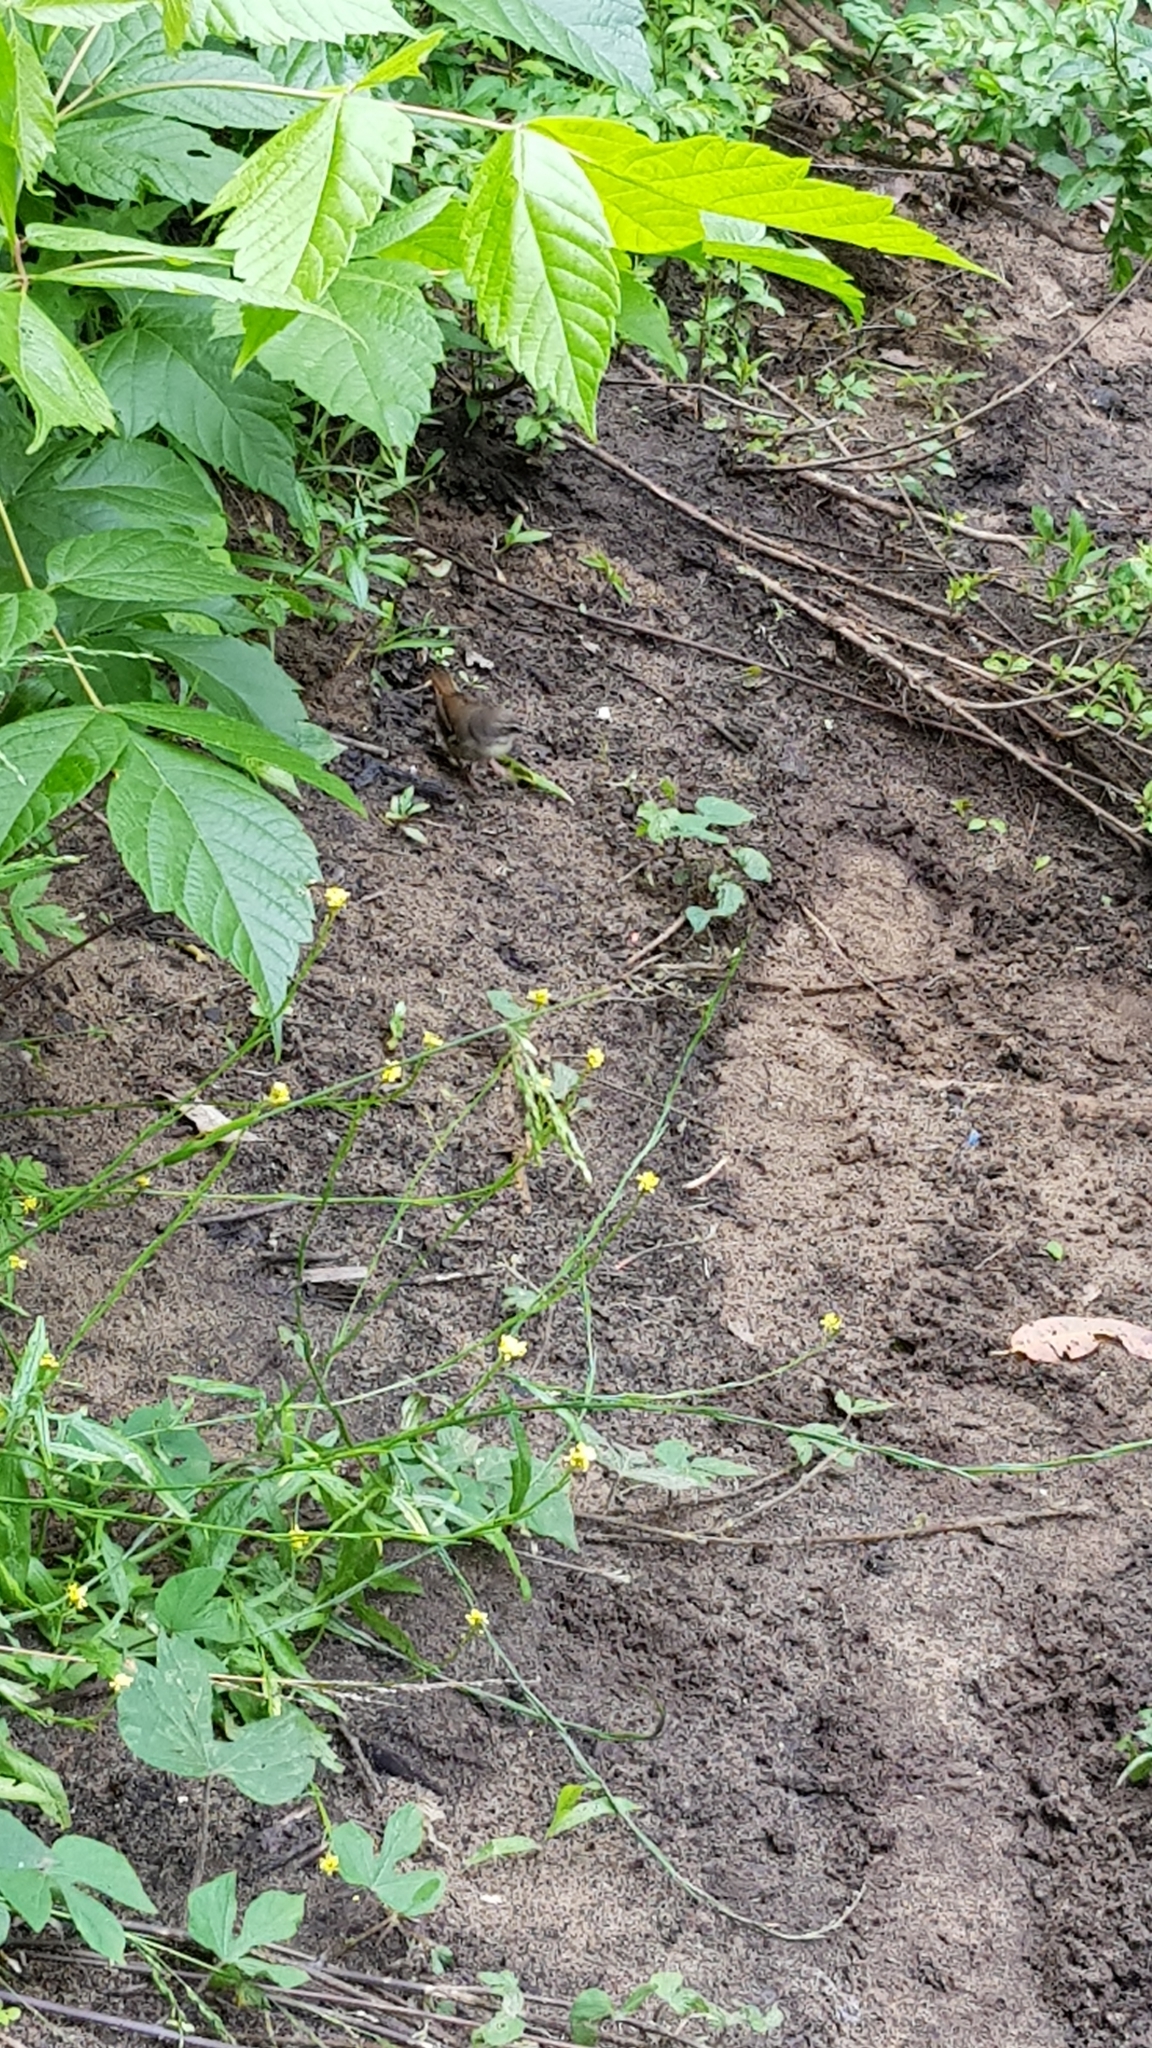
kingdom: Animalia
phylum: Chordata
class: Aves
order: Passeriformes
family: Acanthizidae
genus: Sericornis
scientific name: Sericornis frontalis
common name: White-browed scrubwren
